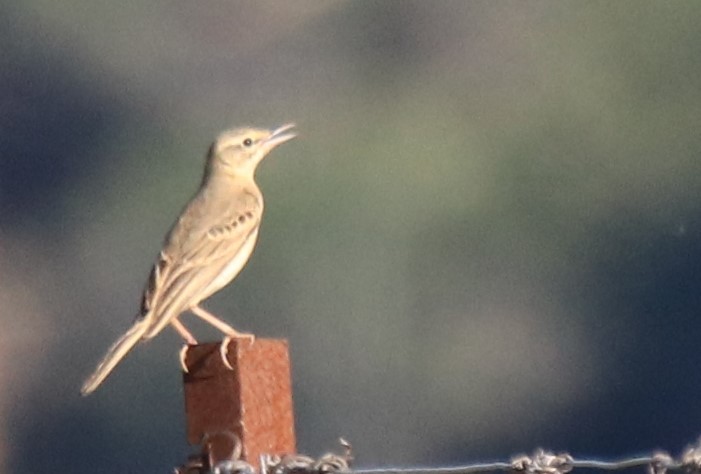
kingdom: Animalia
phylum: Chordata
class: Aves
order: Passeriformes
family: Motacillidae
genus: Anthus
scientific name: Anthus campestris
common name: Tawny pipit
